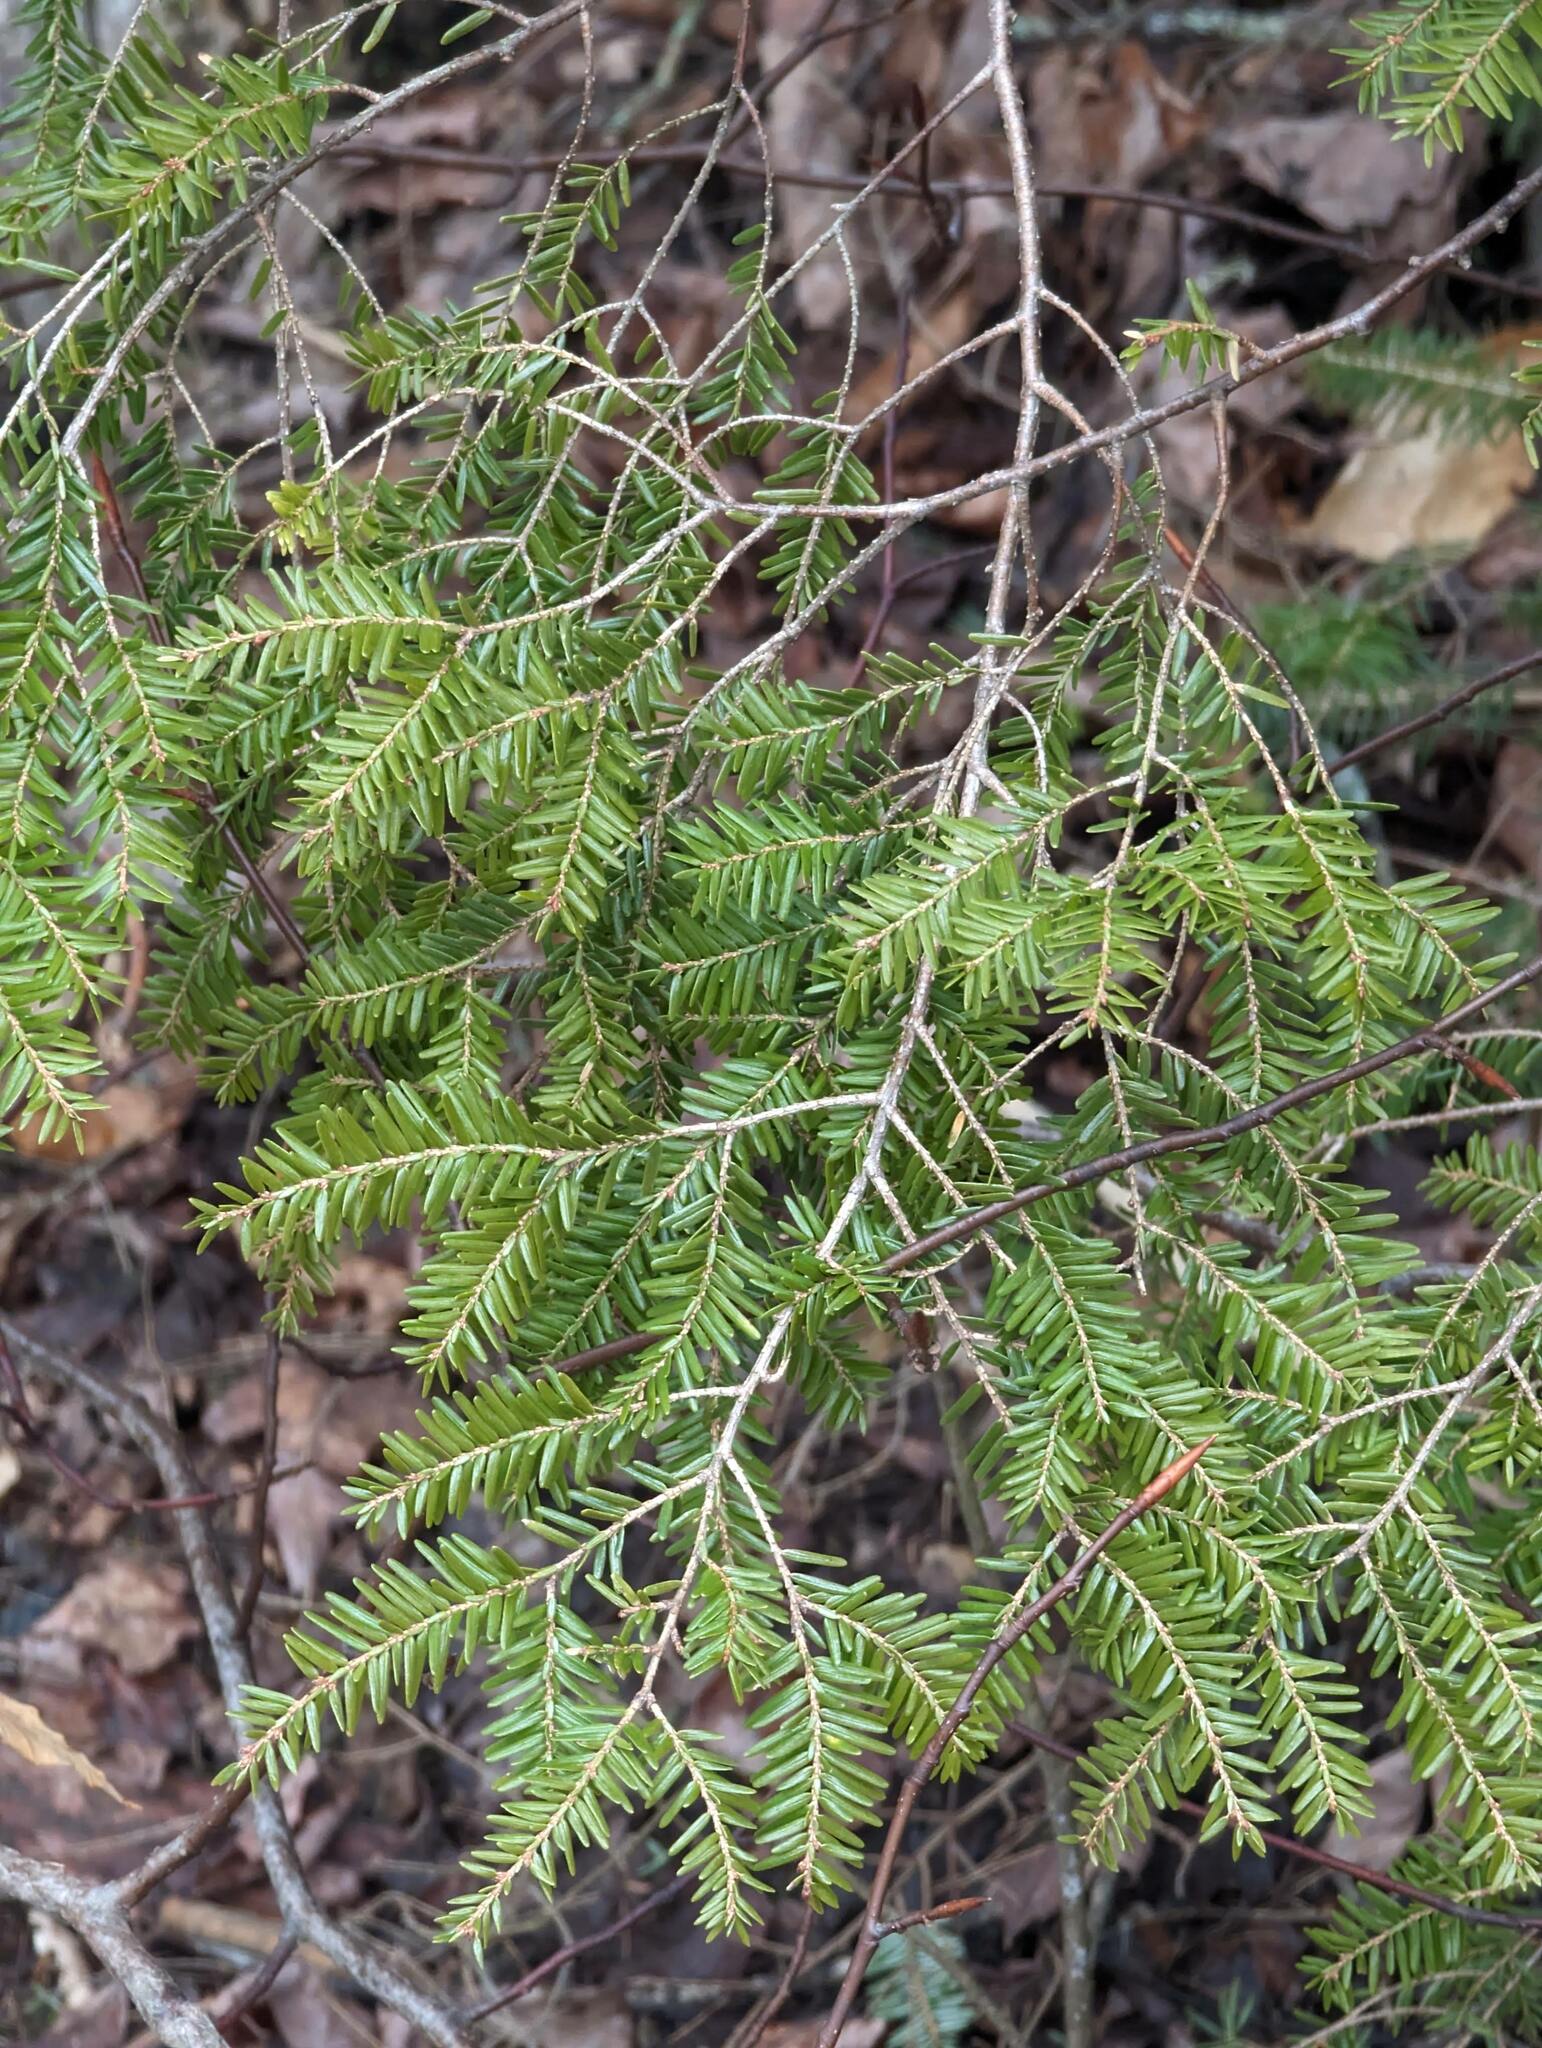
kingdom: Plantae
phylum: Tracheophyta
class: Pinopsida
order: Pinales
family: Pinaceae
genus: Tsuga
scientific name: Tsuga canadensis
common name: Eastern hemlock
